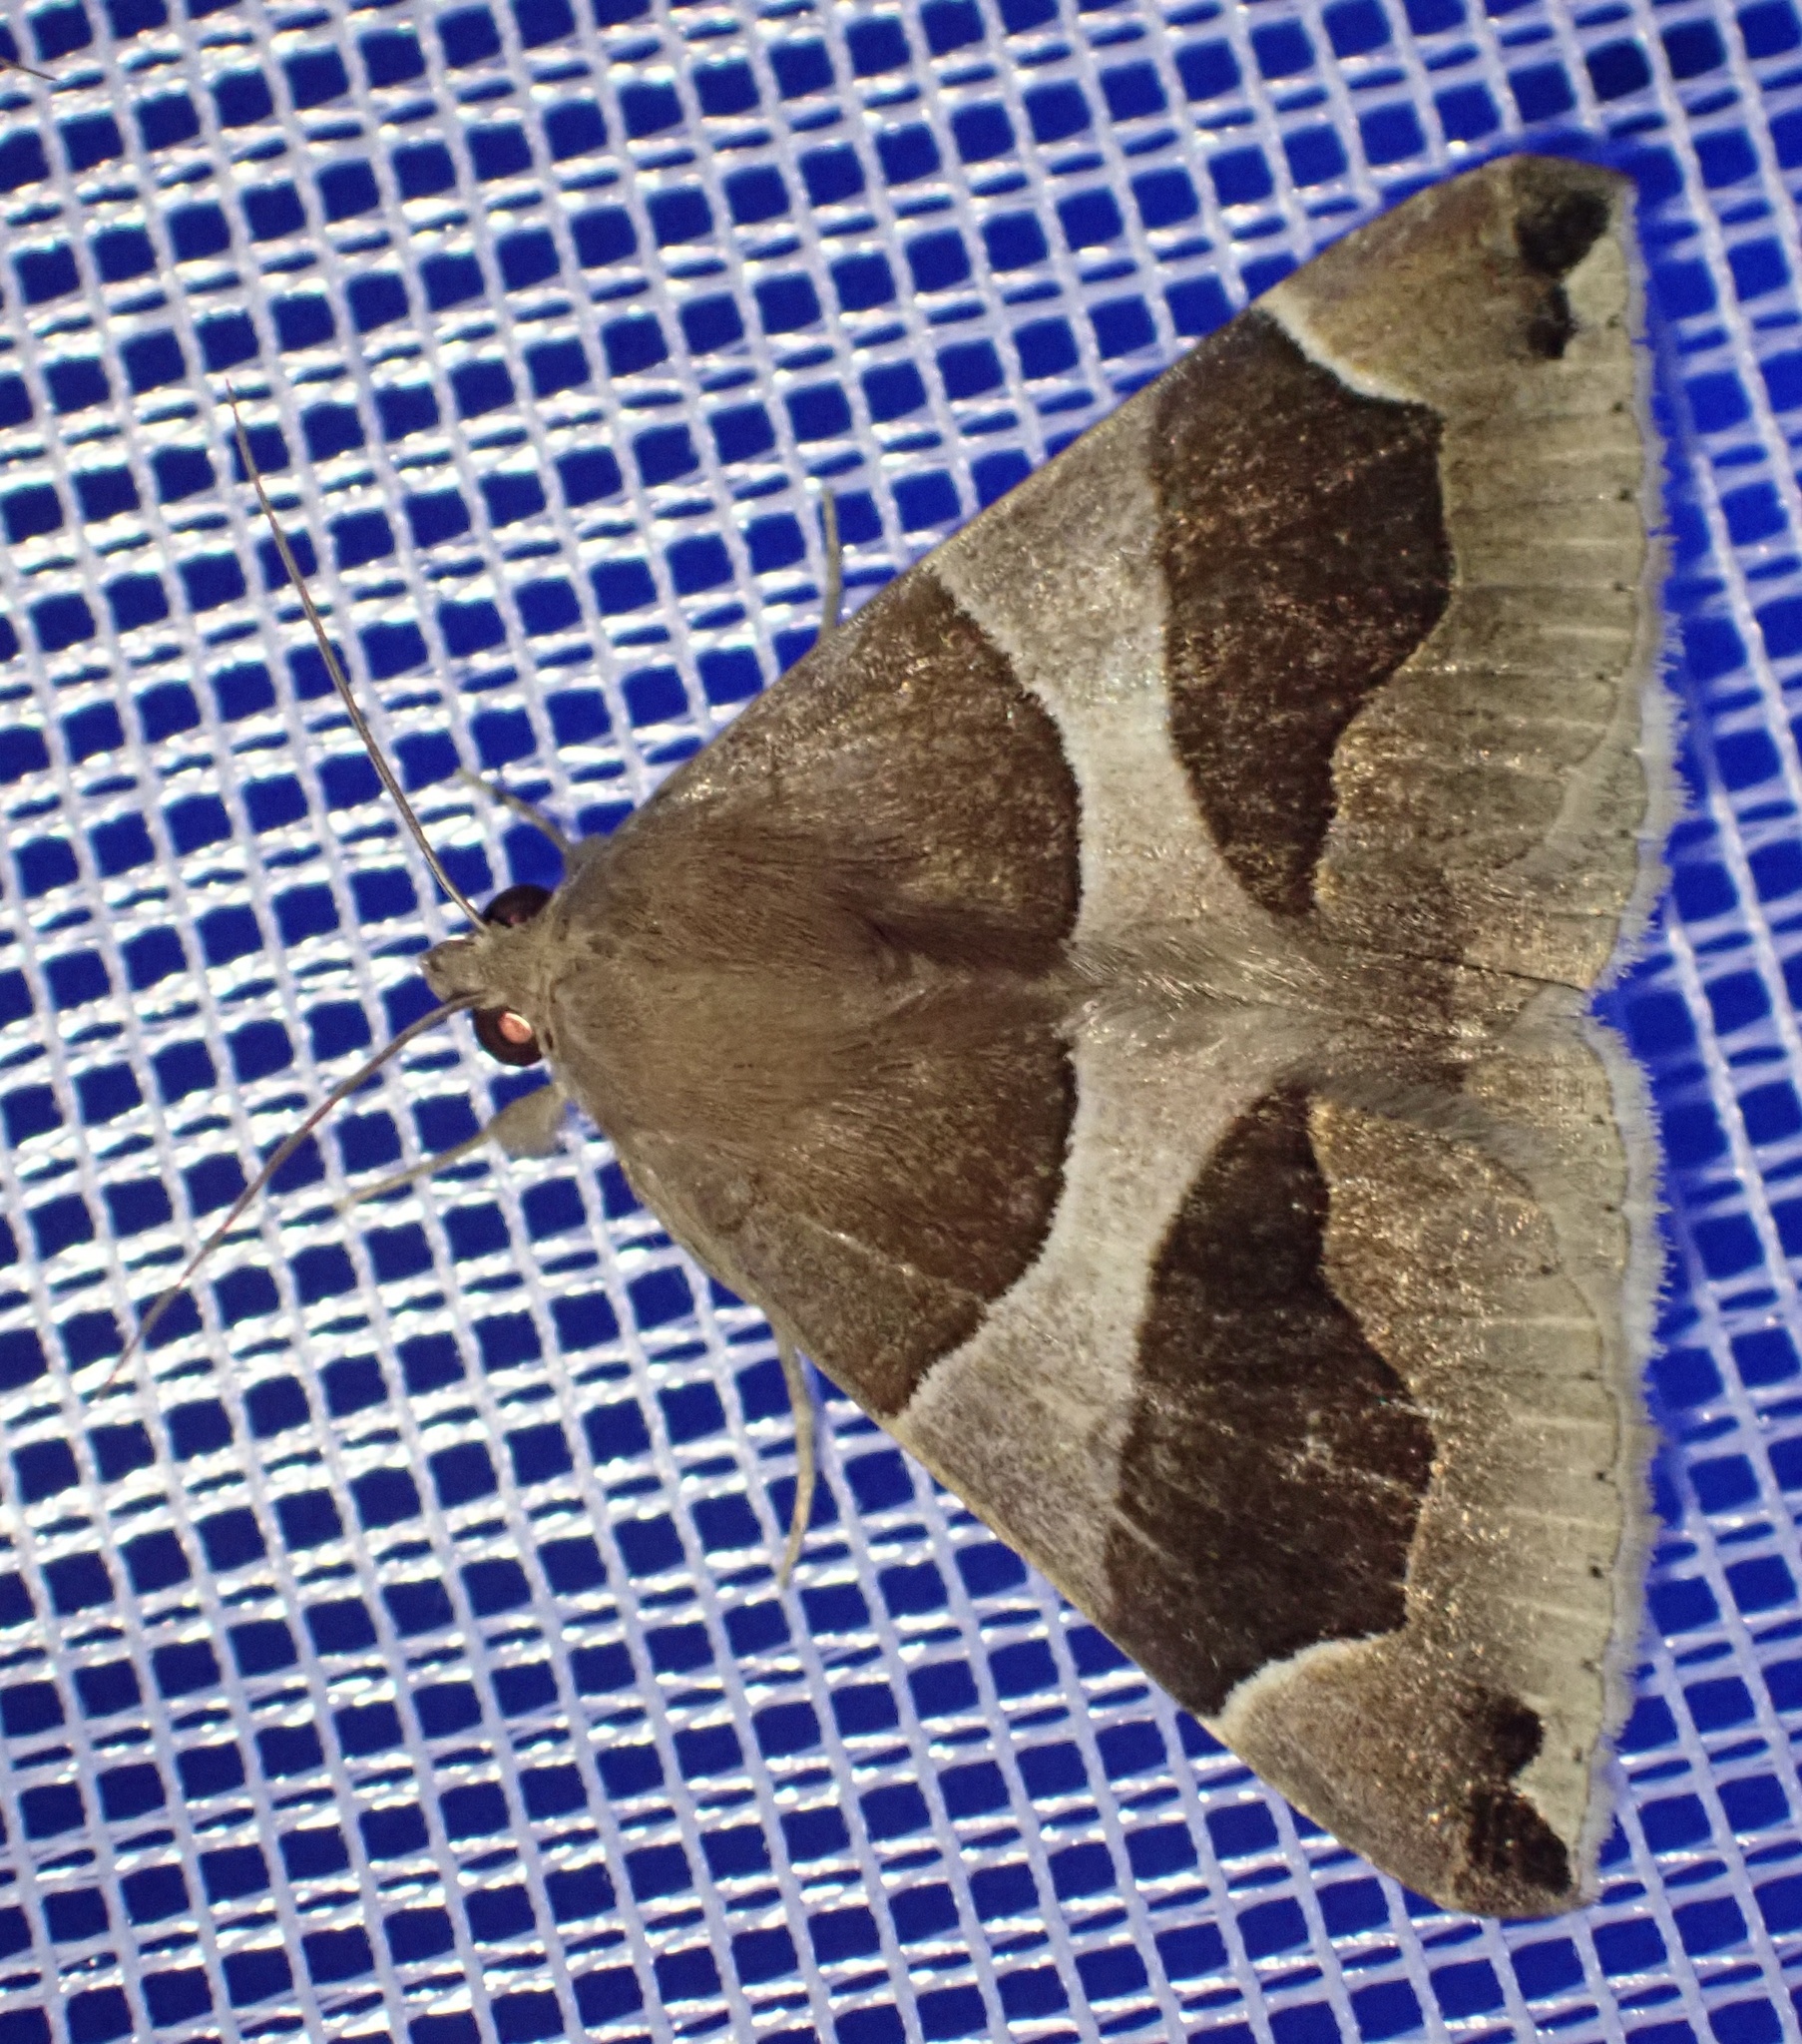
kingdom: Animalia
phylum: Arthropoda
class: Insecta
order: Lepidoptera
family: Erebidae
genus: Dysgonia
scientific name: Dysgonia algira
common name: Passenger
